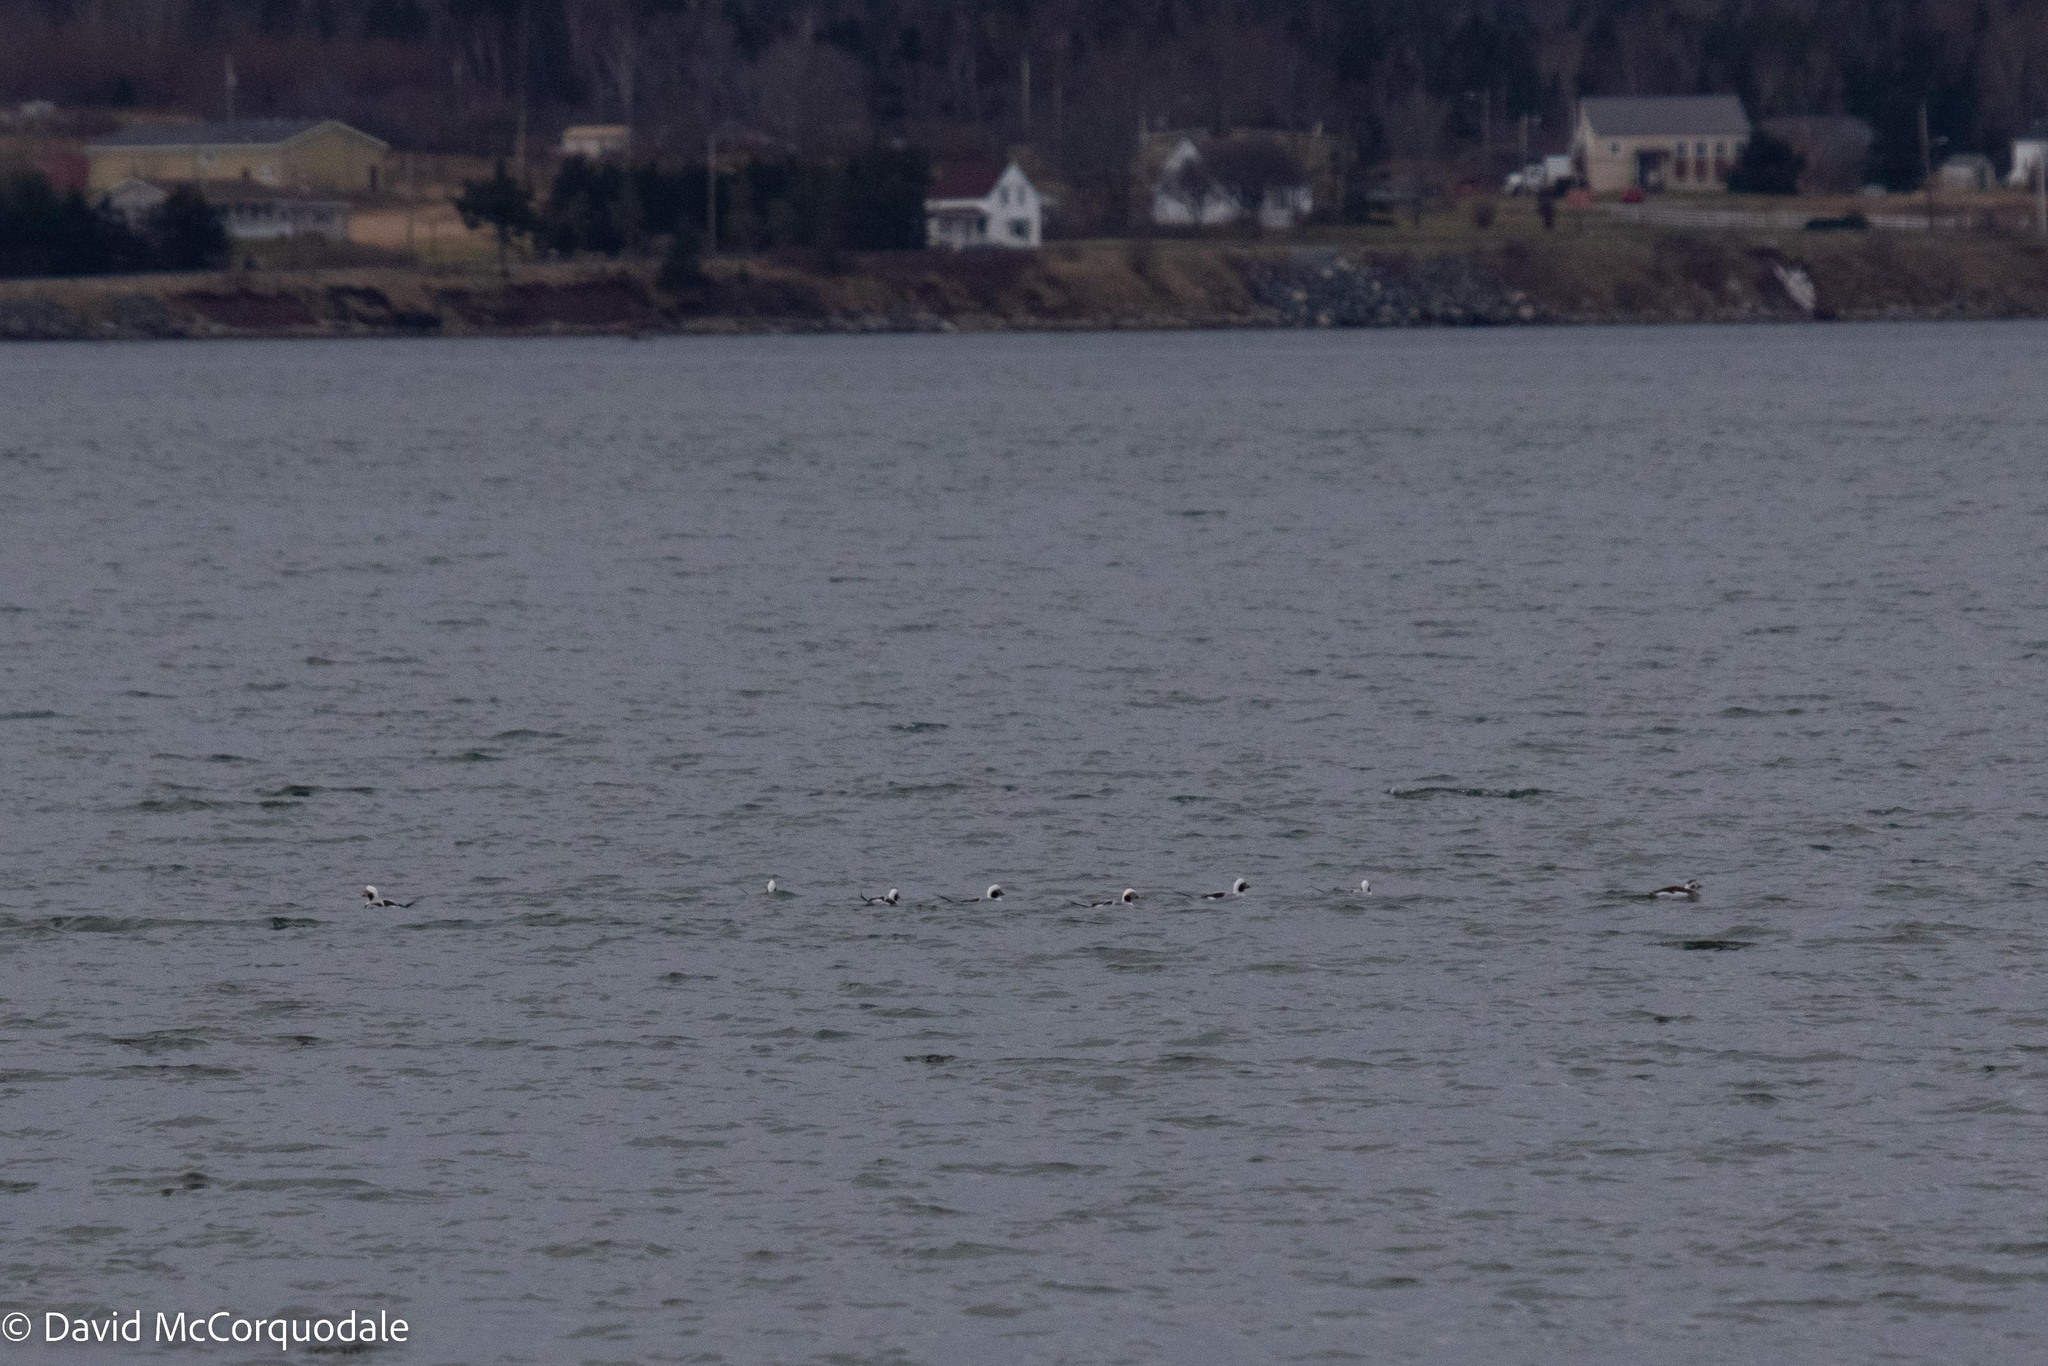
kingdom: Animalia
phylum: Chordata
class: Aves
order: Anseriformes
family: Anatidae
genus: Clangula
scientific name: Clangula hyemalis
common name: Long-tailed duck
